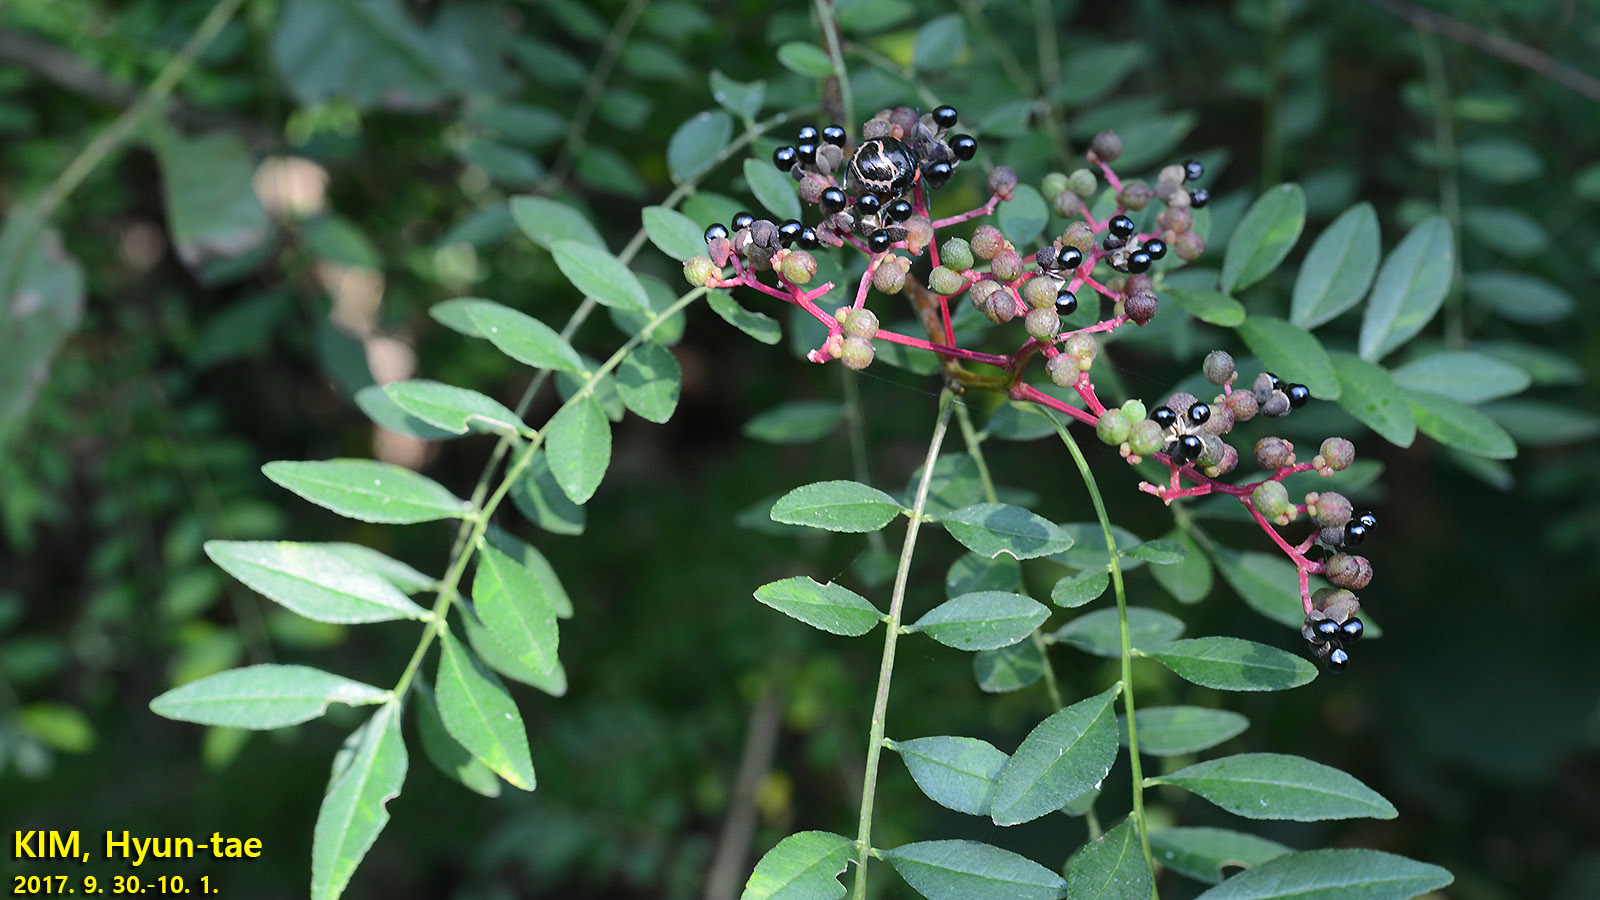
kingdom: Plantae
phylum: Tracheophyta
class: Magnoliopsida
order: Sapindales
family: Rutaceae
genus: Zanthoxylum
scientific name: Zanthoxylum schinifolium
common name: Sichuan-pepper
